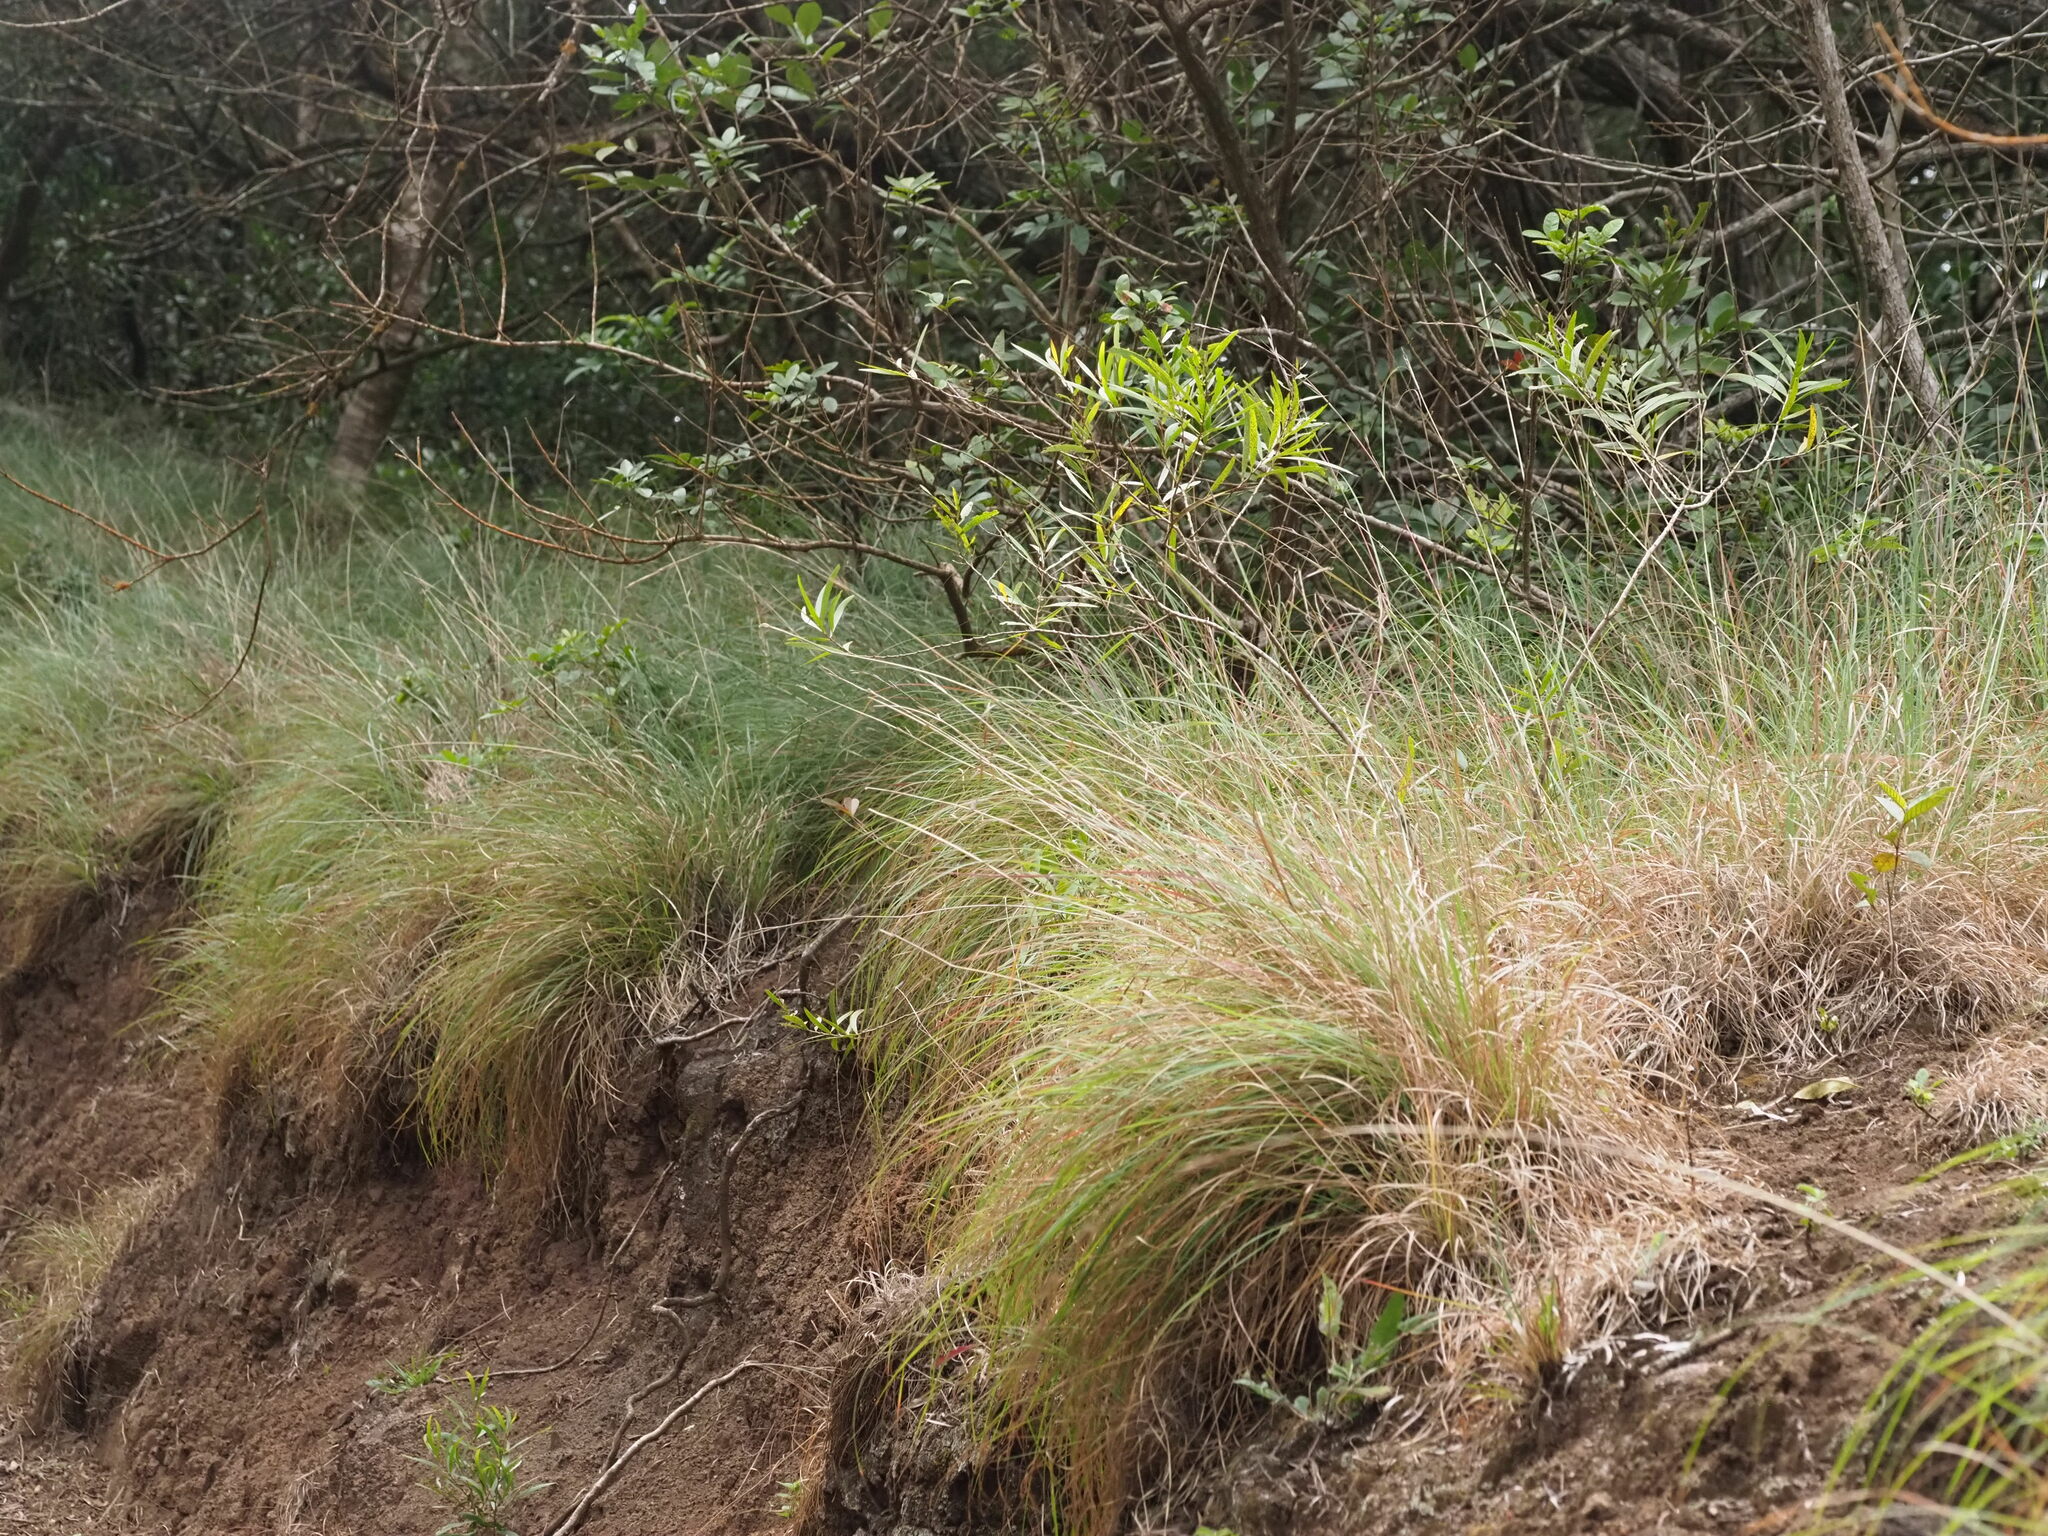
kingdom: Plantae
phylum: Tracheophyta
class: Liliopsida
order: Poales
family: Poaceae
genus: Cymbopogon
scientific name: Cymbopogon refractus
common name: Barbwire grass
